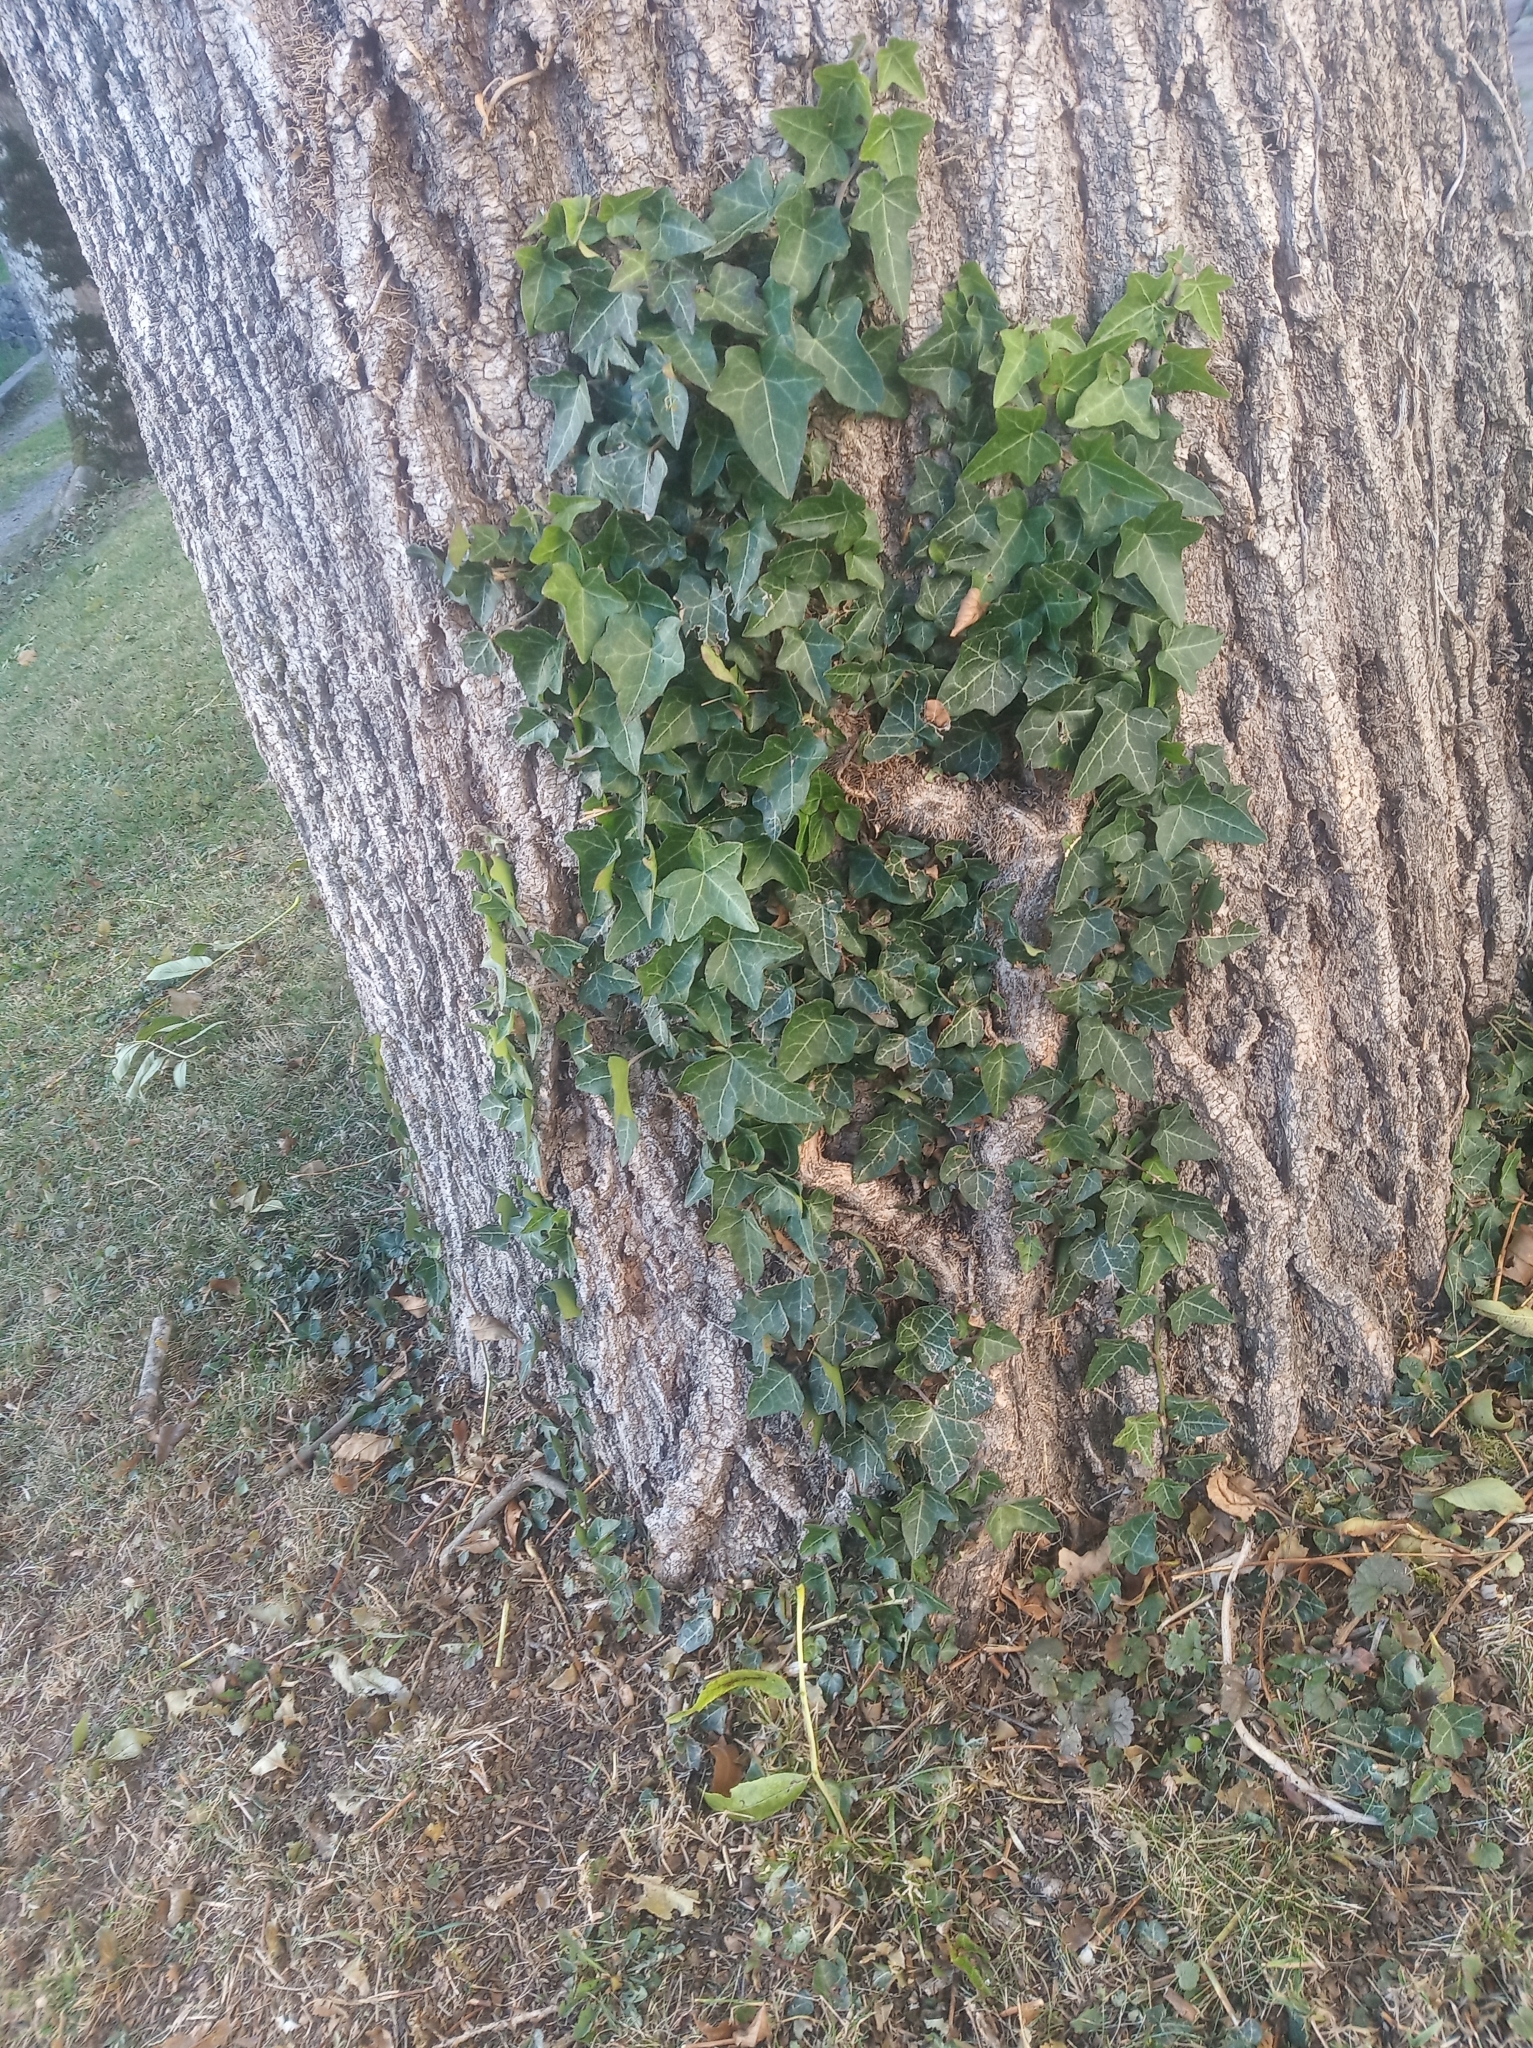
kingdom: Plantae
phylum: Tracheophyta
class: Magnoliopsida
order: Apiales
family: Araliaceae
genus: Hedera
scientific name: Hedera helix
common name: Ivy
